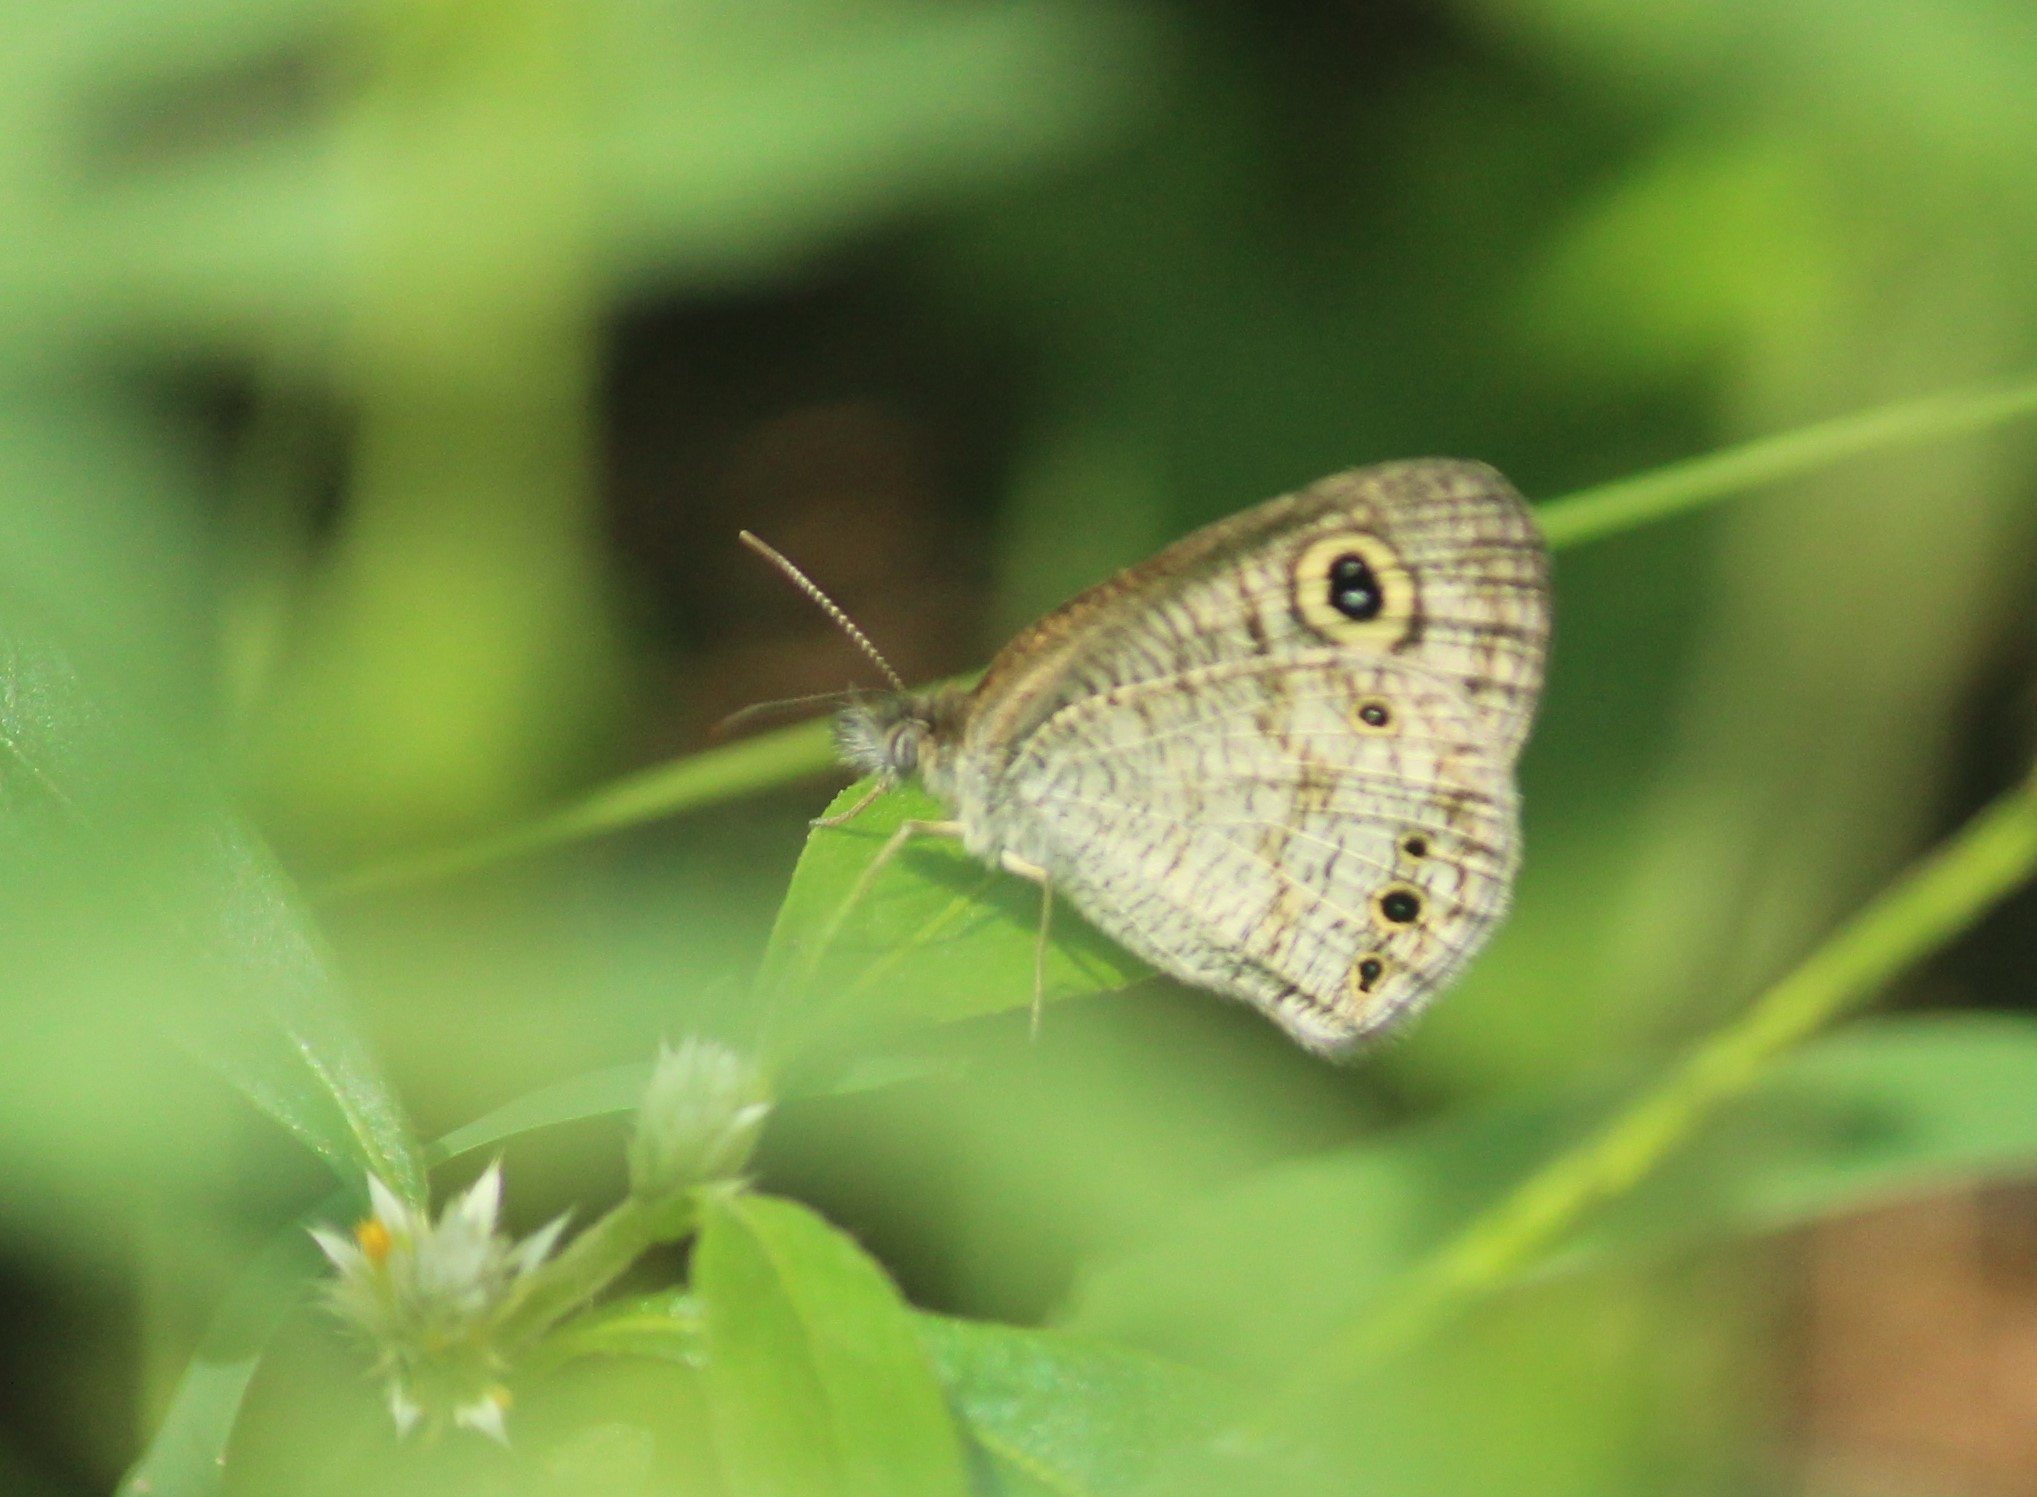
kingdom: Animalia
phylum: Arthropoda
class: Insecta
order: Lepidoptera
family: Nymphalidae
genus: Ypthima
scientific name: Ypthima huebneri
